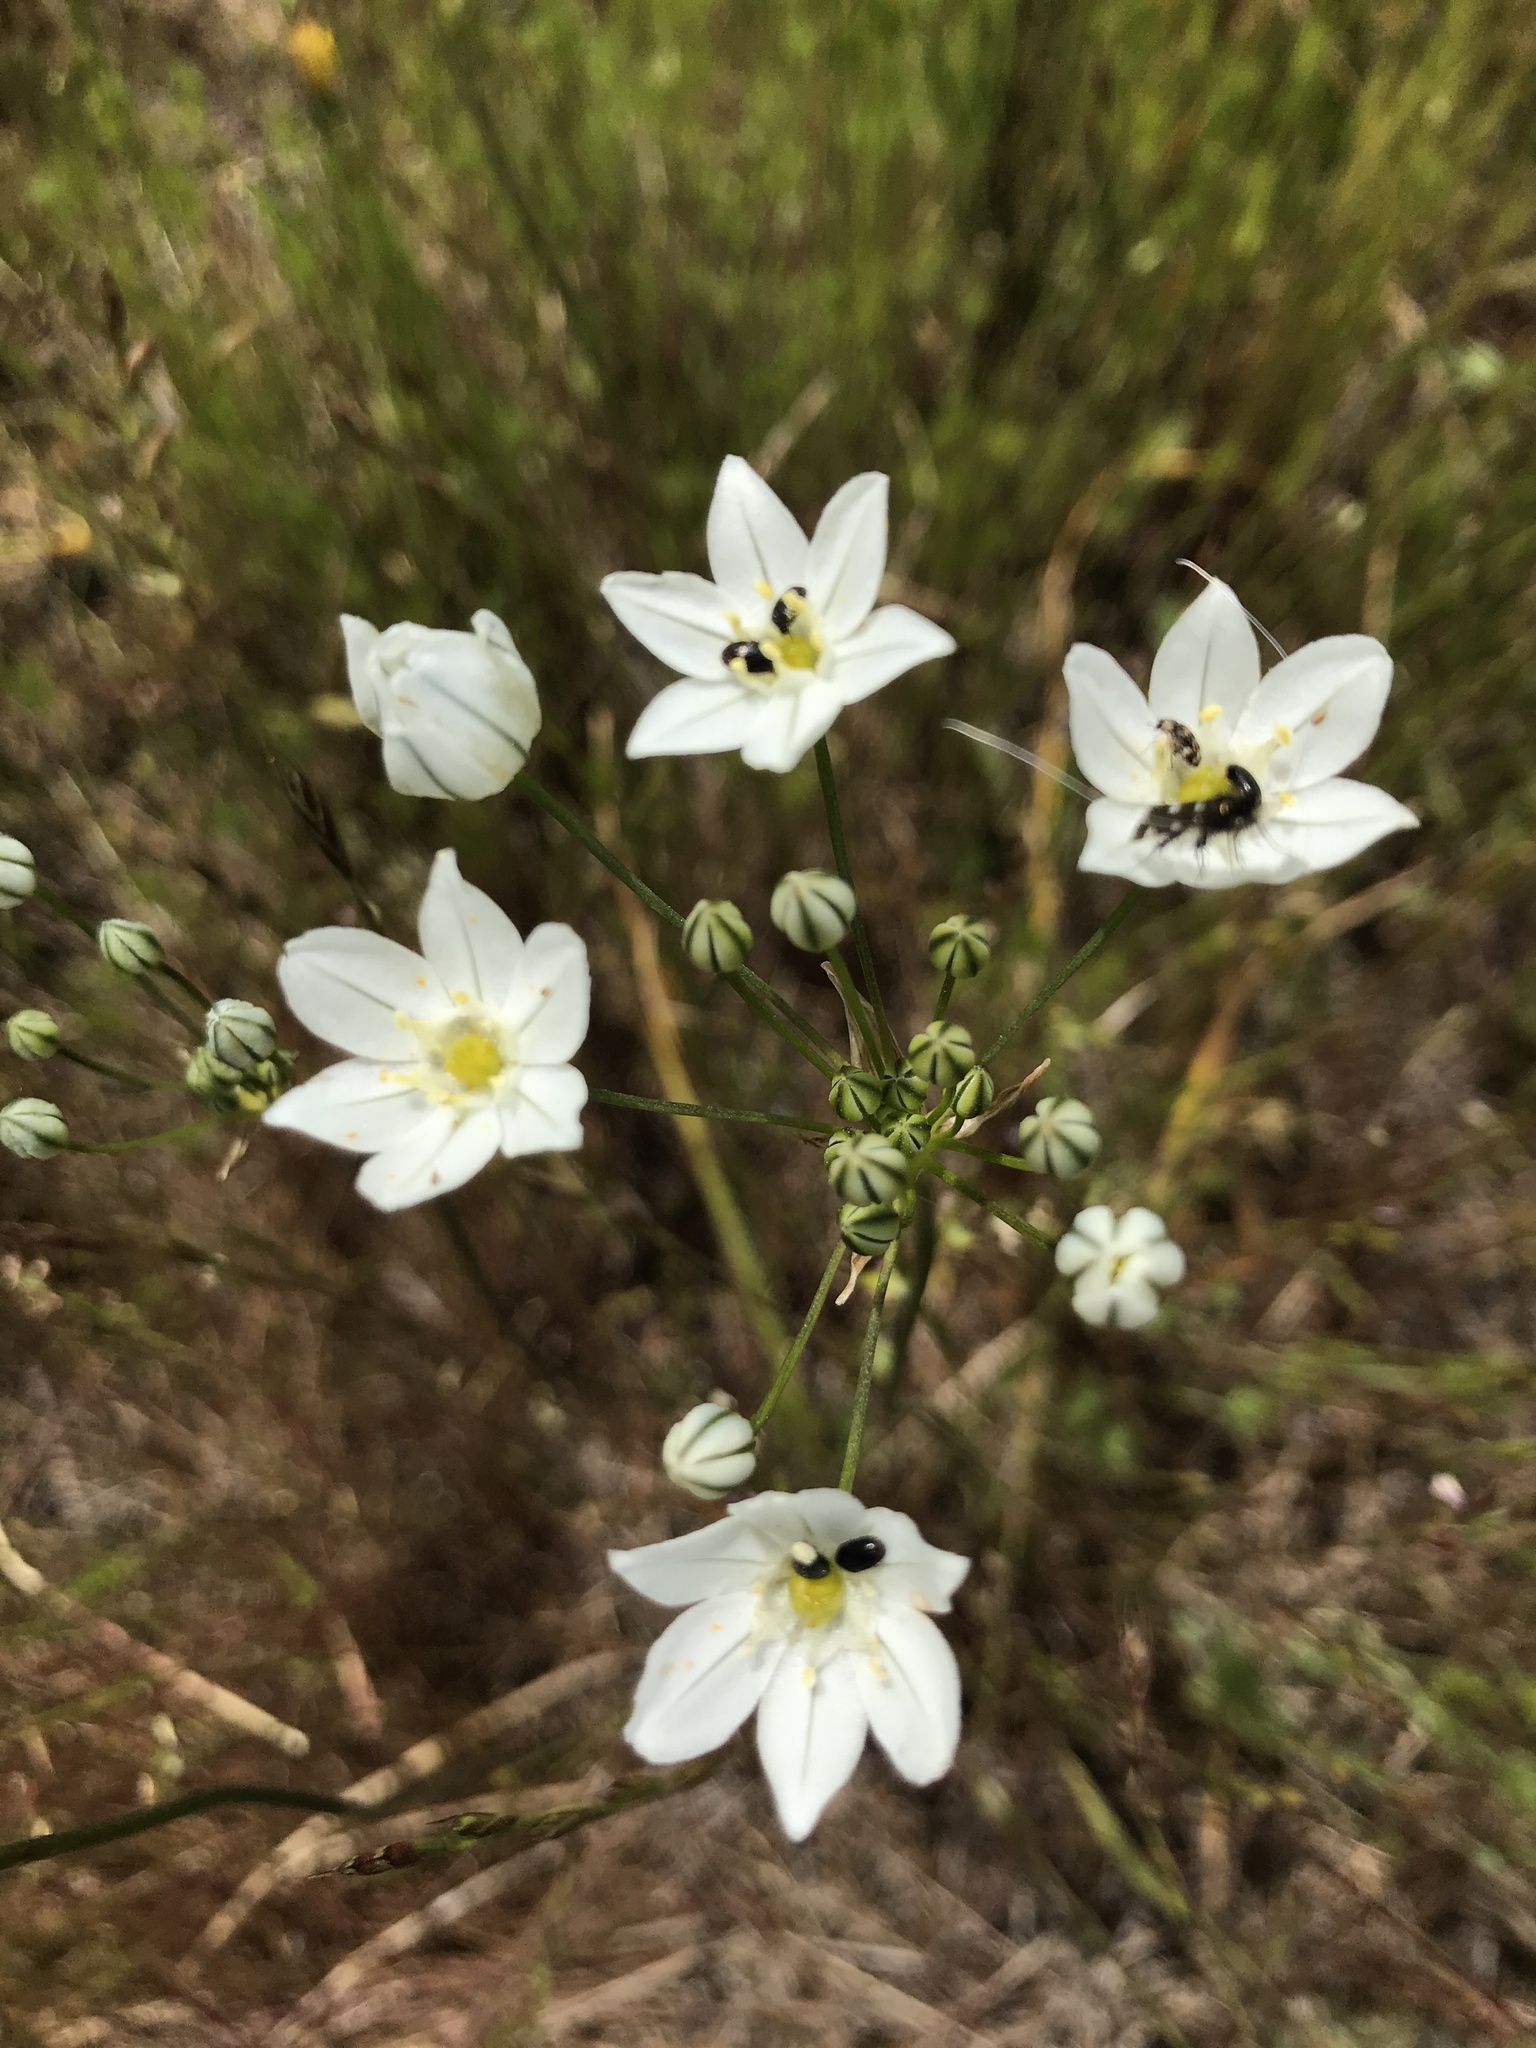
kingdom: Plantae
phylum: Tracheophyta
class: Liliopsida
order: Asparagales
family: Asparagaceae
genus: Triteleia
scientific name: Triteleia hyacinthina
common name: White brodiaea
